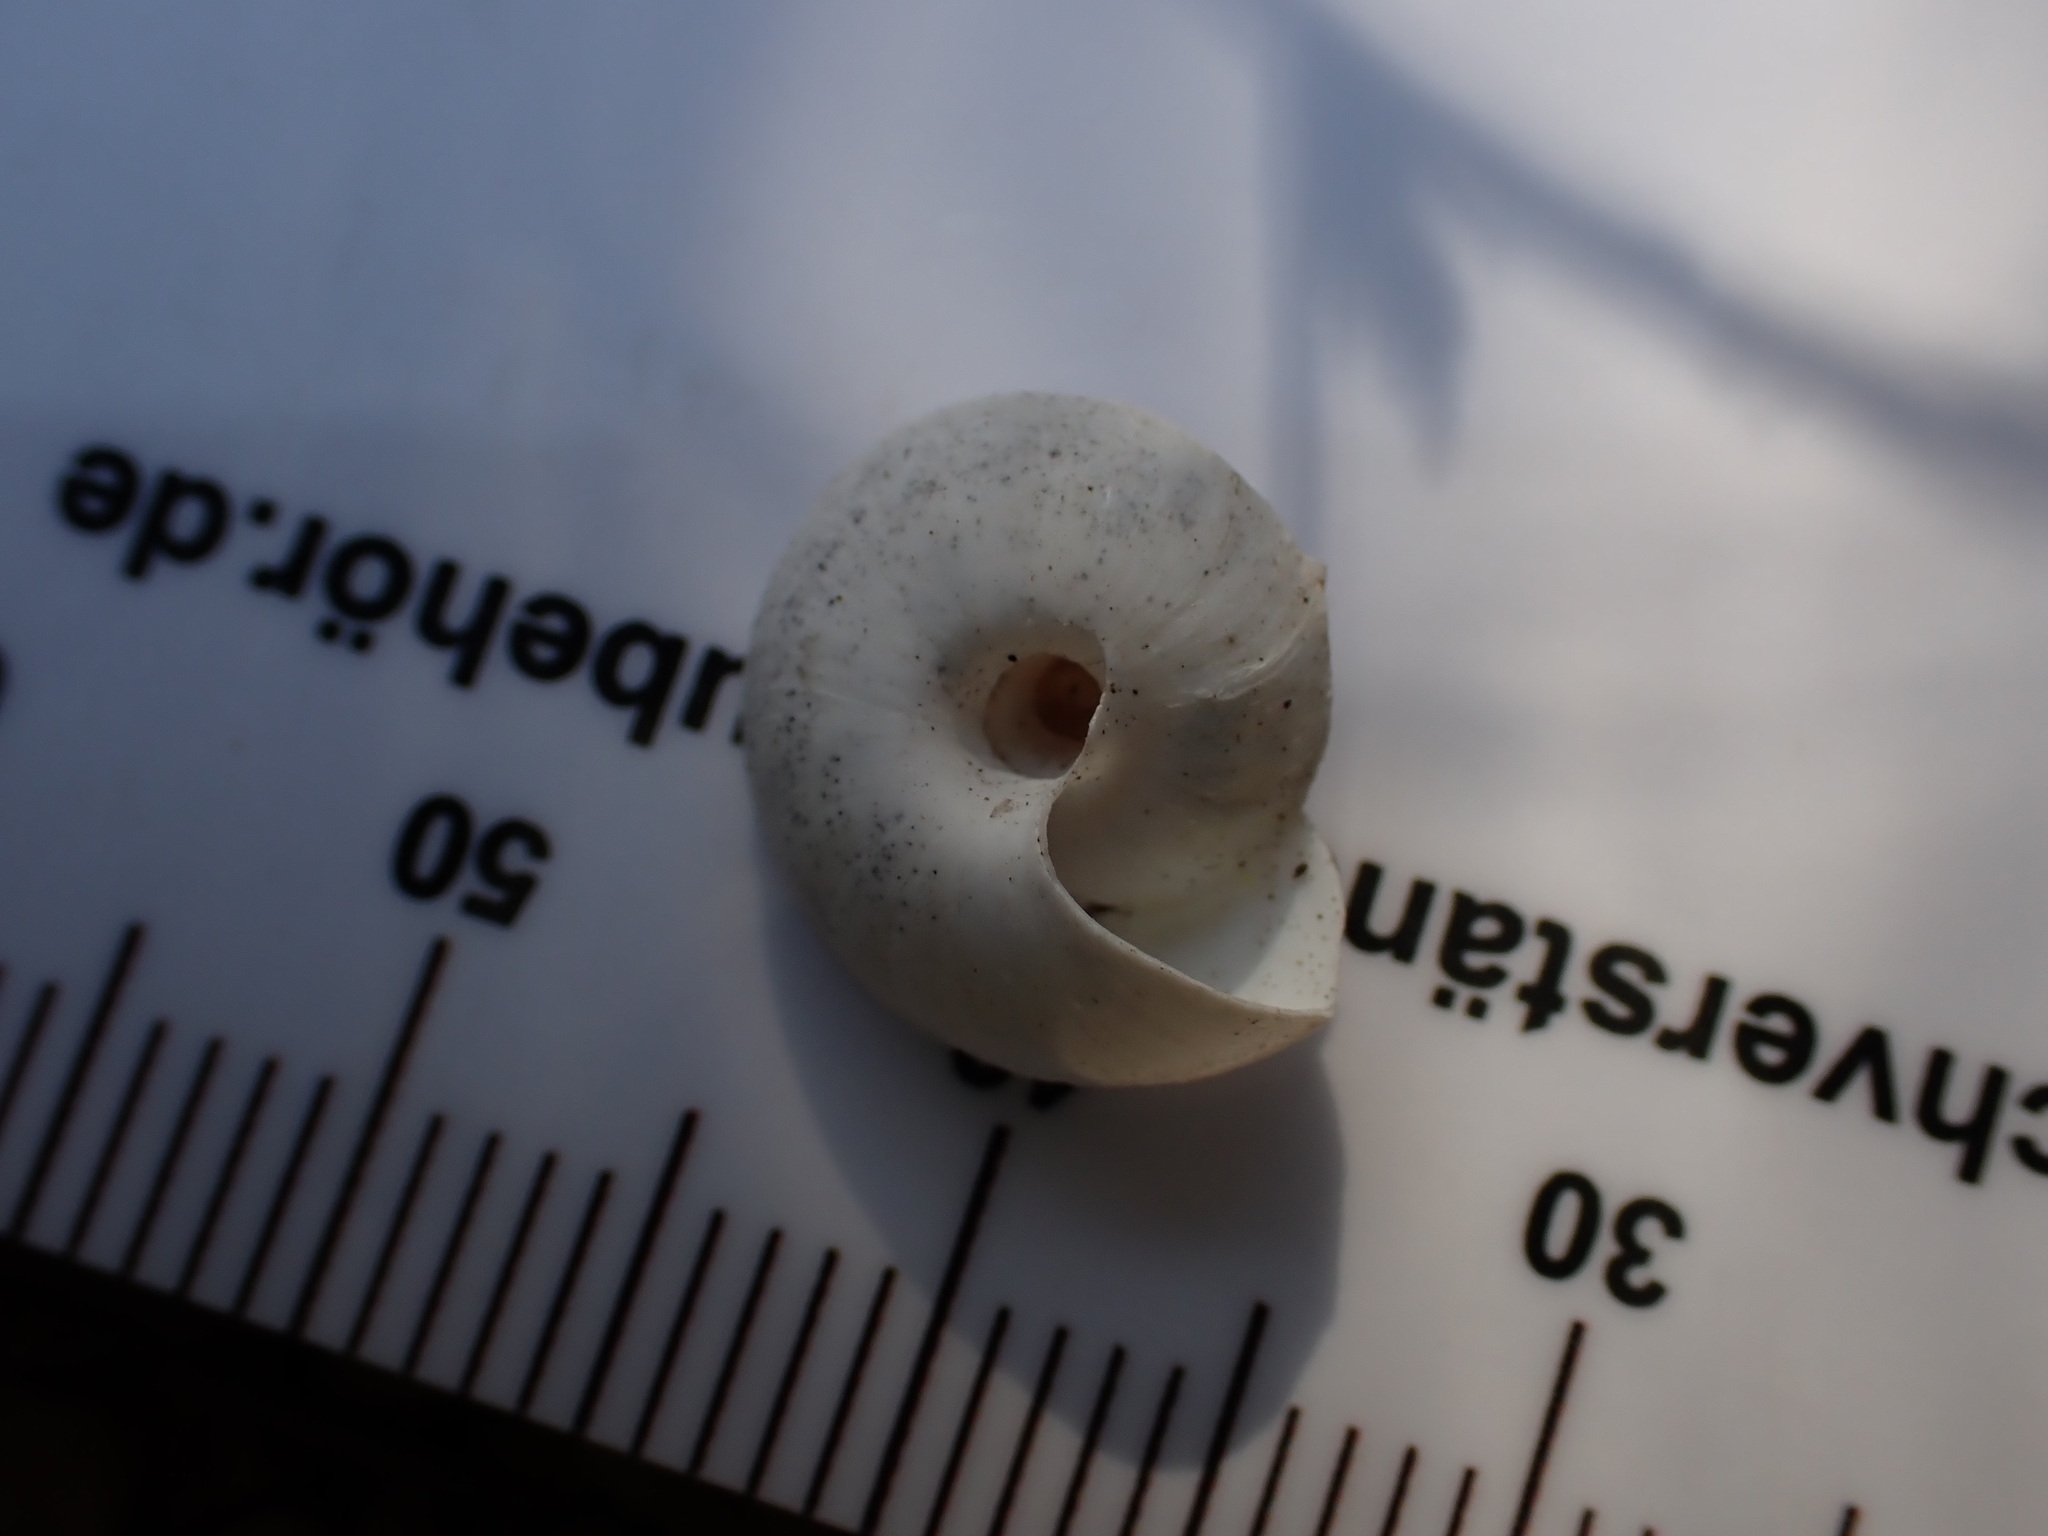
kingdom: Animalia
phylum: Mollusca
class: Gastropoda
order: Stylommatophora
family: Sphincterochilidae
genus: Sphincterochila
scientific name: Sphincterochila candidissima
